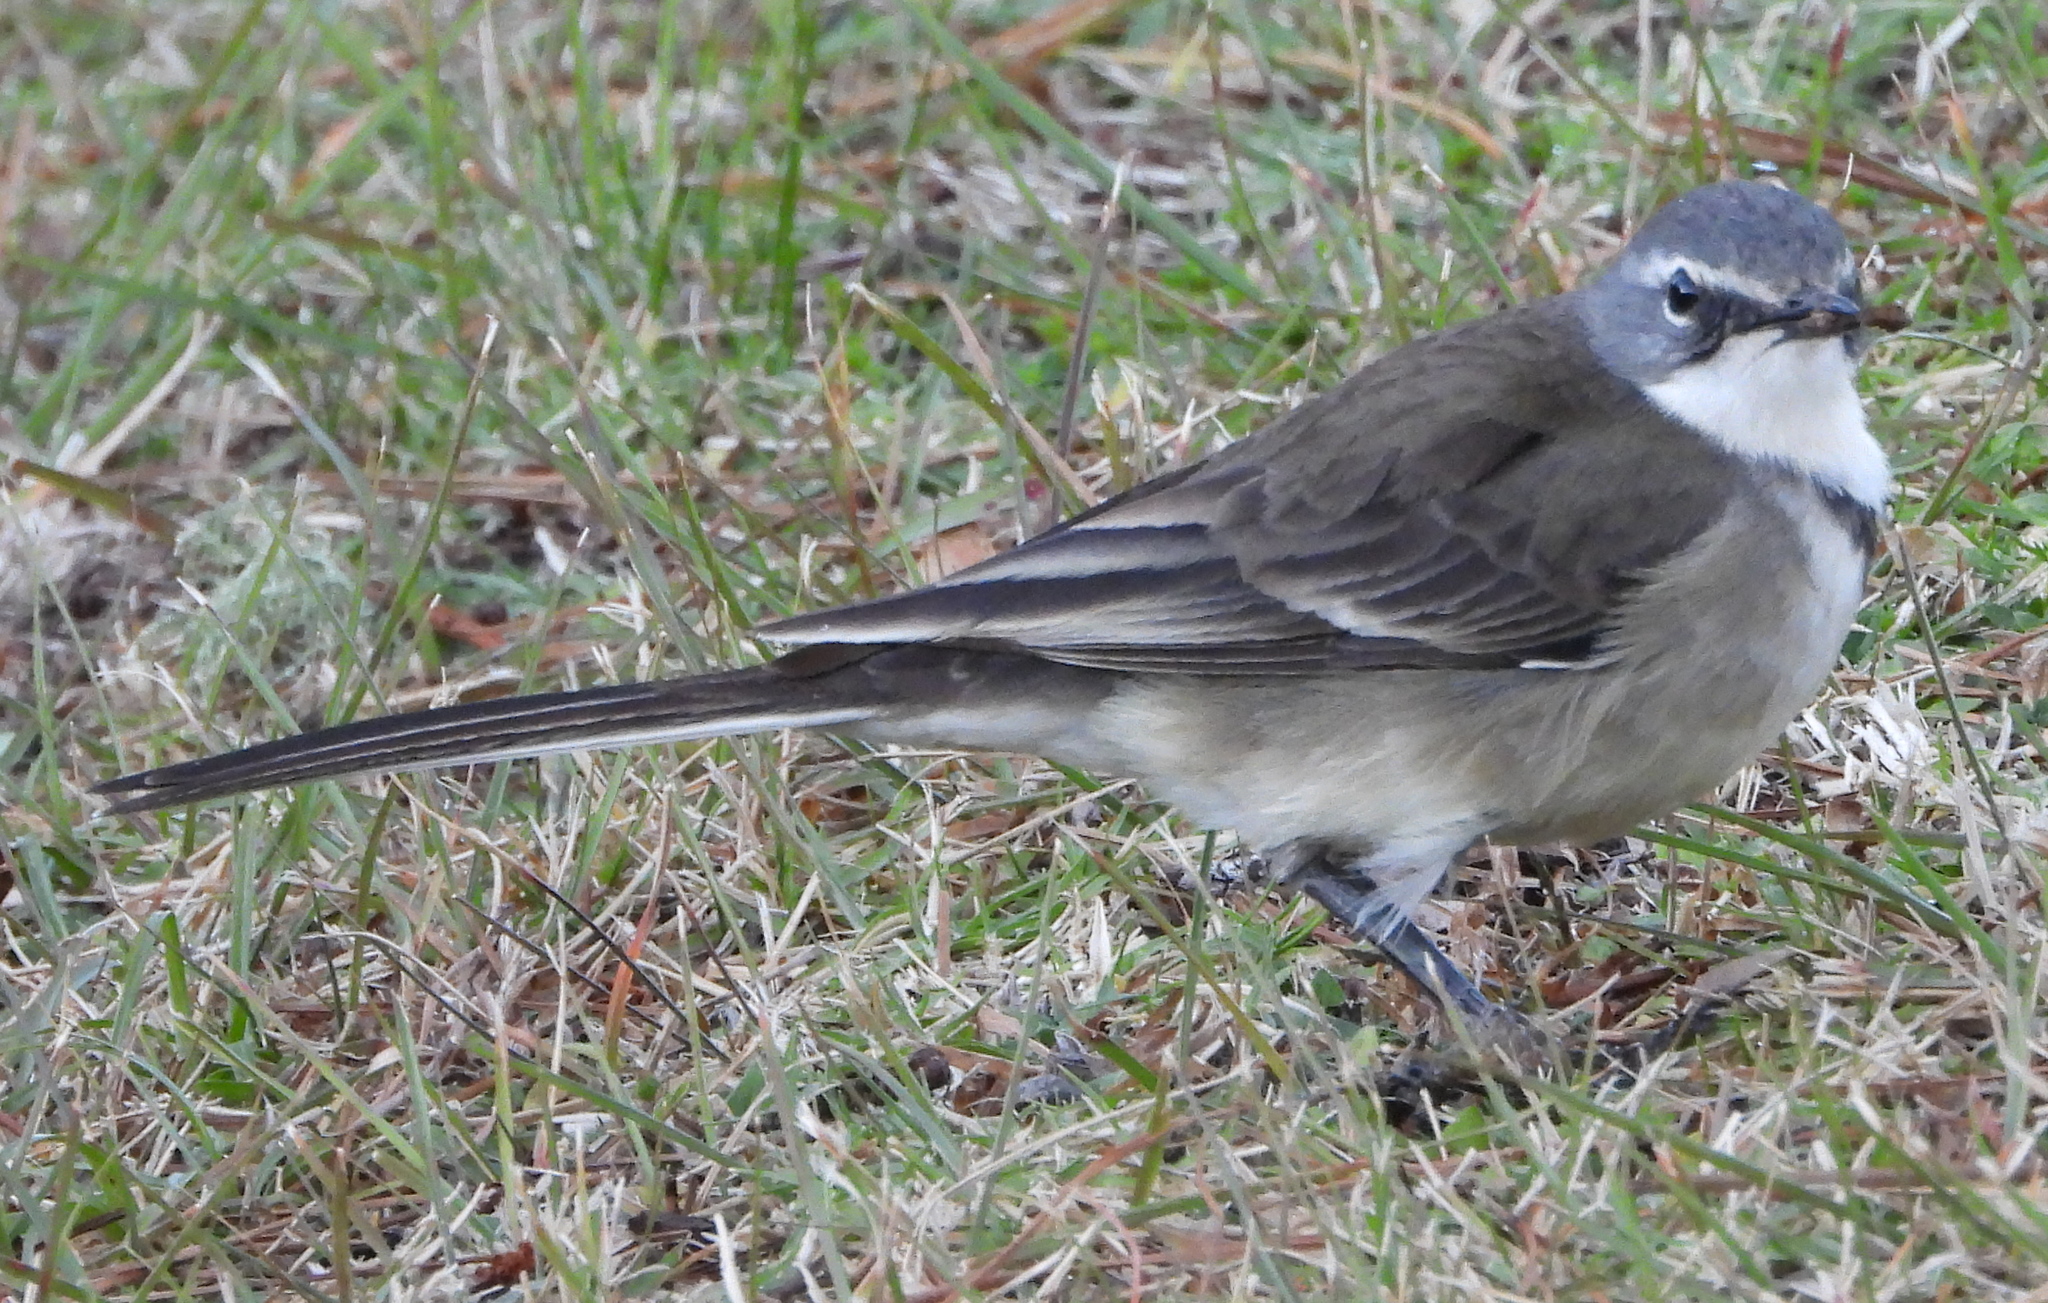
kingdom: Animalia
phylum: Chordata
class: Aves
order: Passeriformes
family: Motacillidae
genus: Motacilla
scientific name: Motacilla capensis
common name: Cape wagtail
